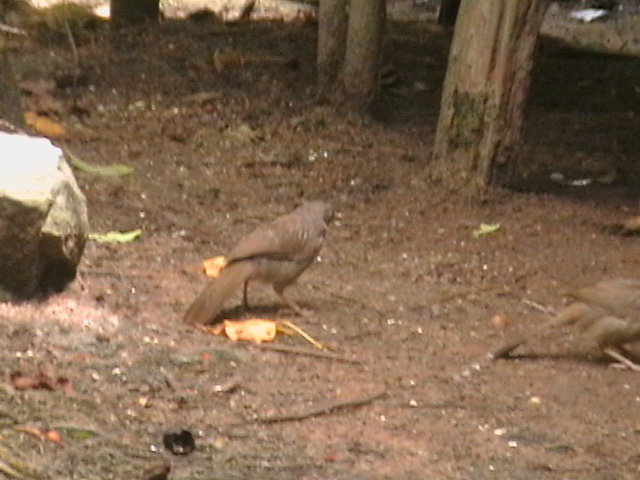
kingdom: Animalia
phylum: Chordata
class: Aves
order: Passeriformes
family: Leiothrichidae
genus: Turdoides
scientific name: Turdoides striata
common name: Jungle babbler
